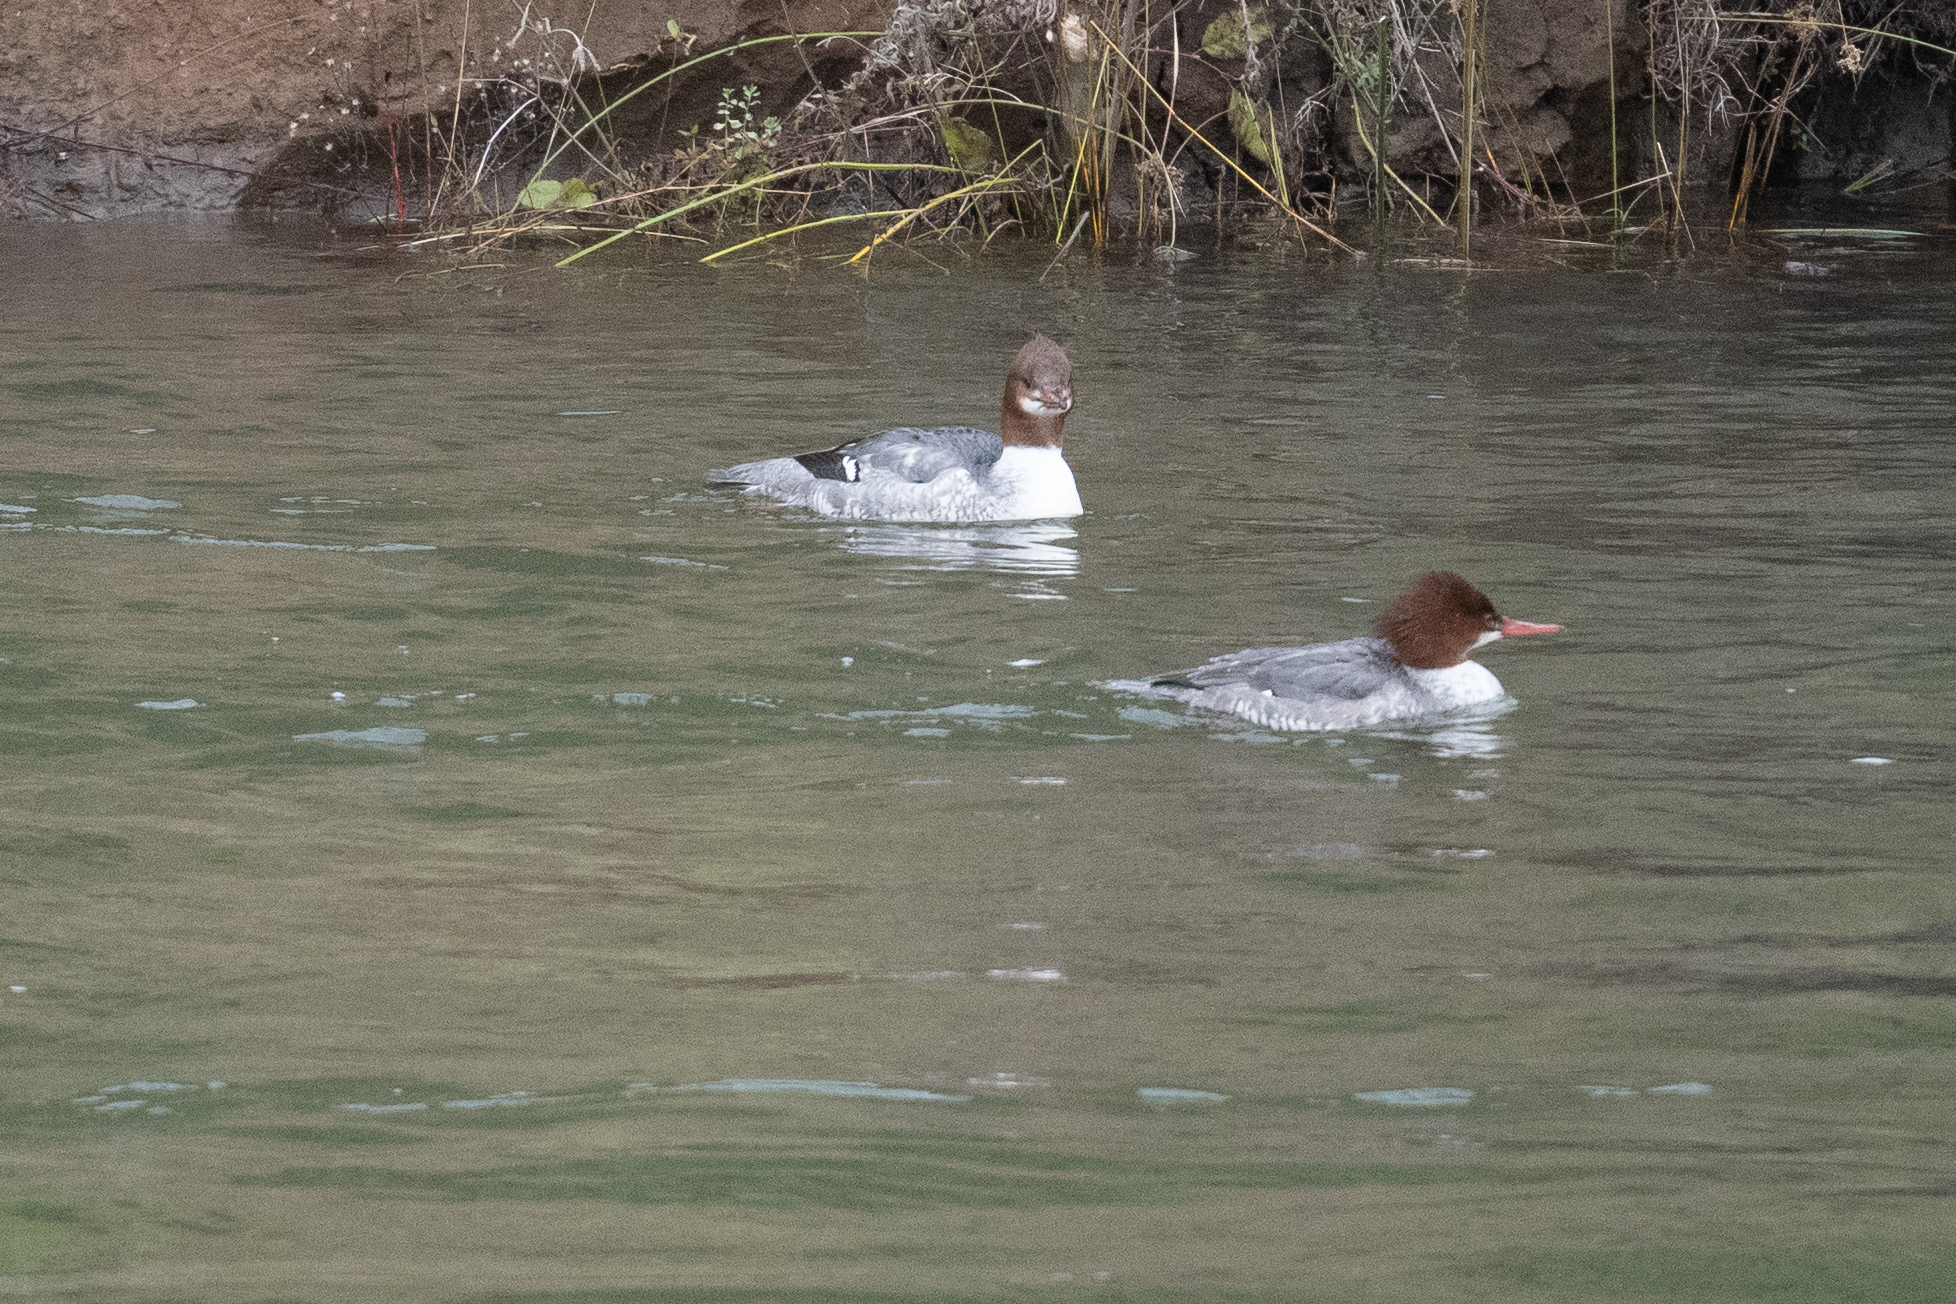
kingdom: Animalia
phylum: Chordata
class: Aves
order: Anseriformes
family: Anatidae
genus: Mergus
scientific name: Mergus merganser
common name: Common merganser
